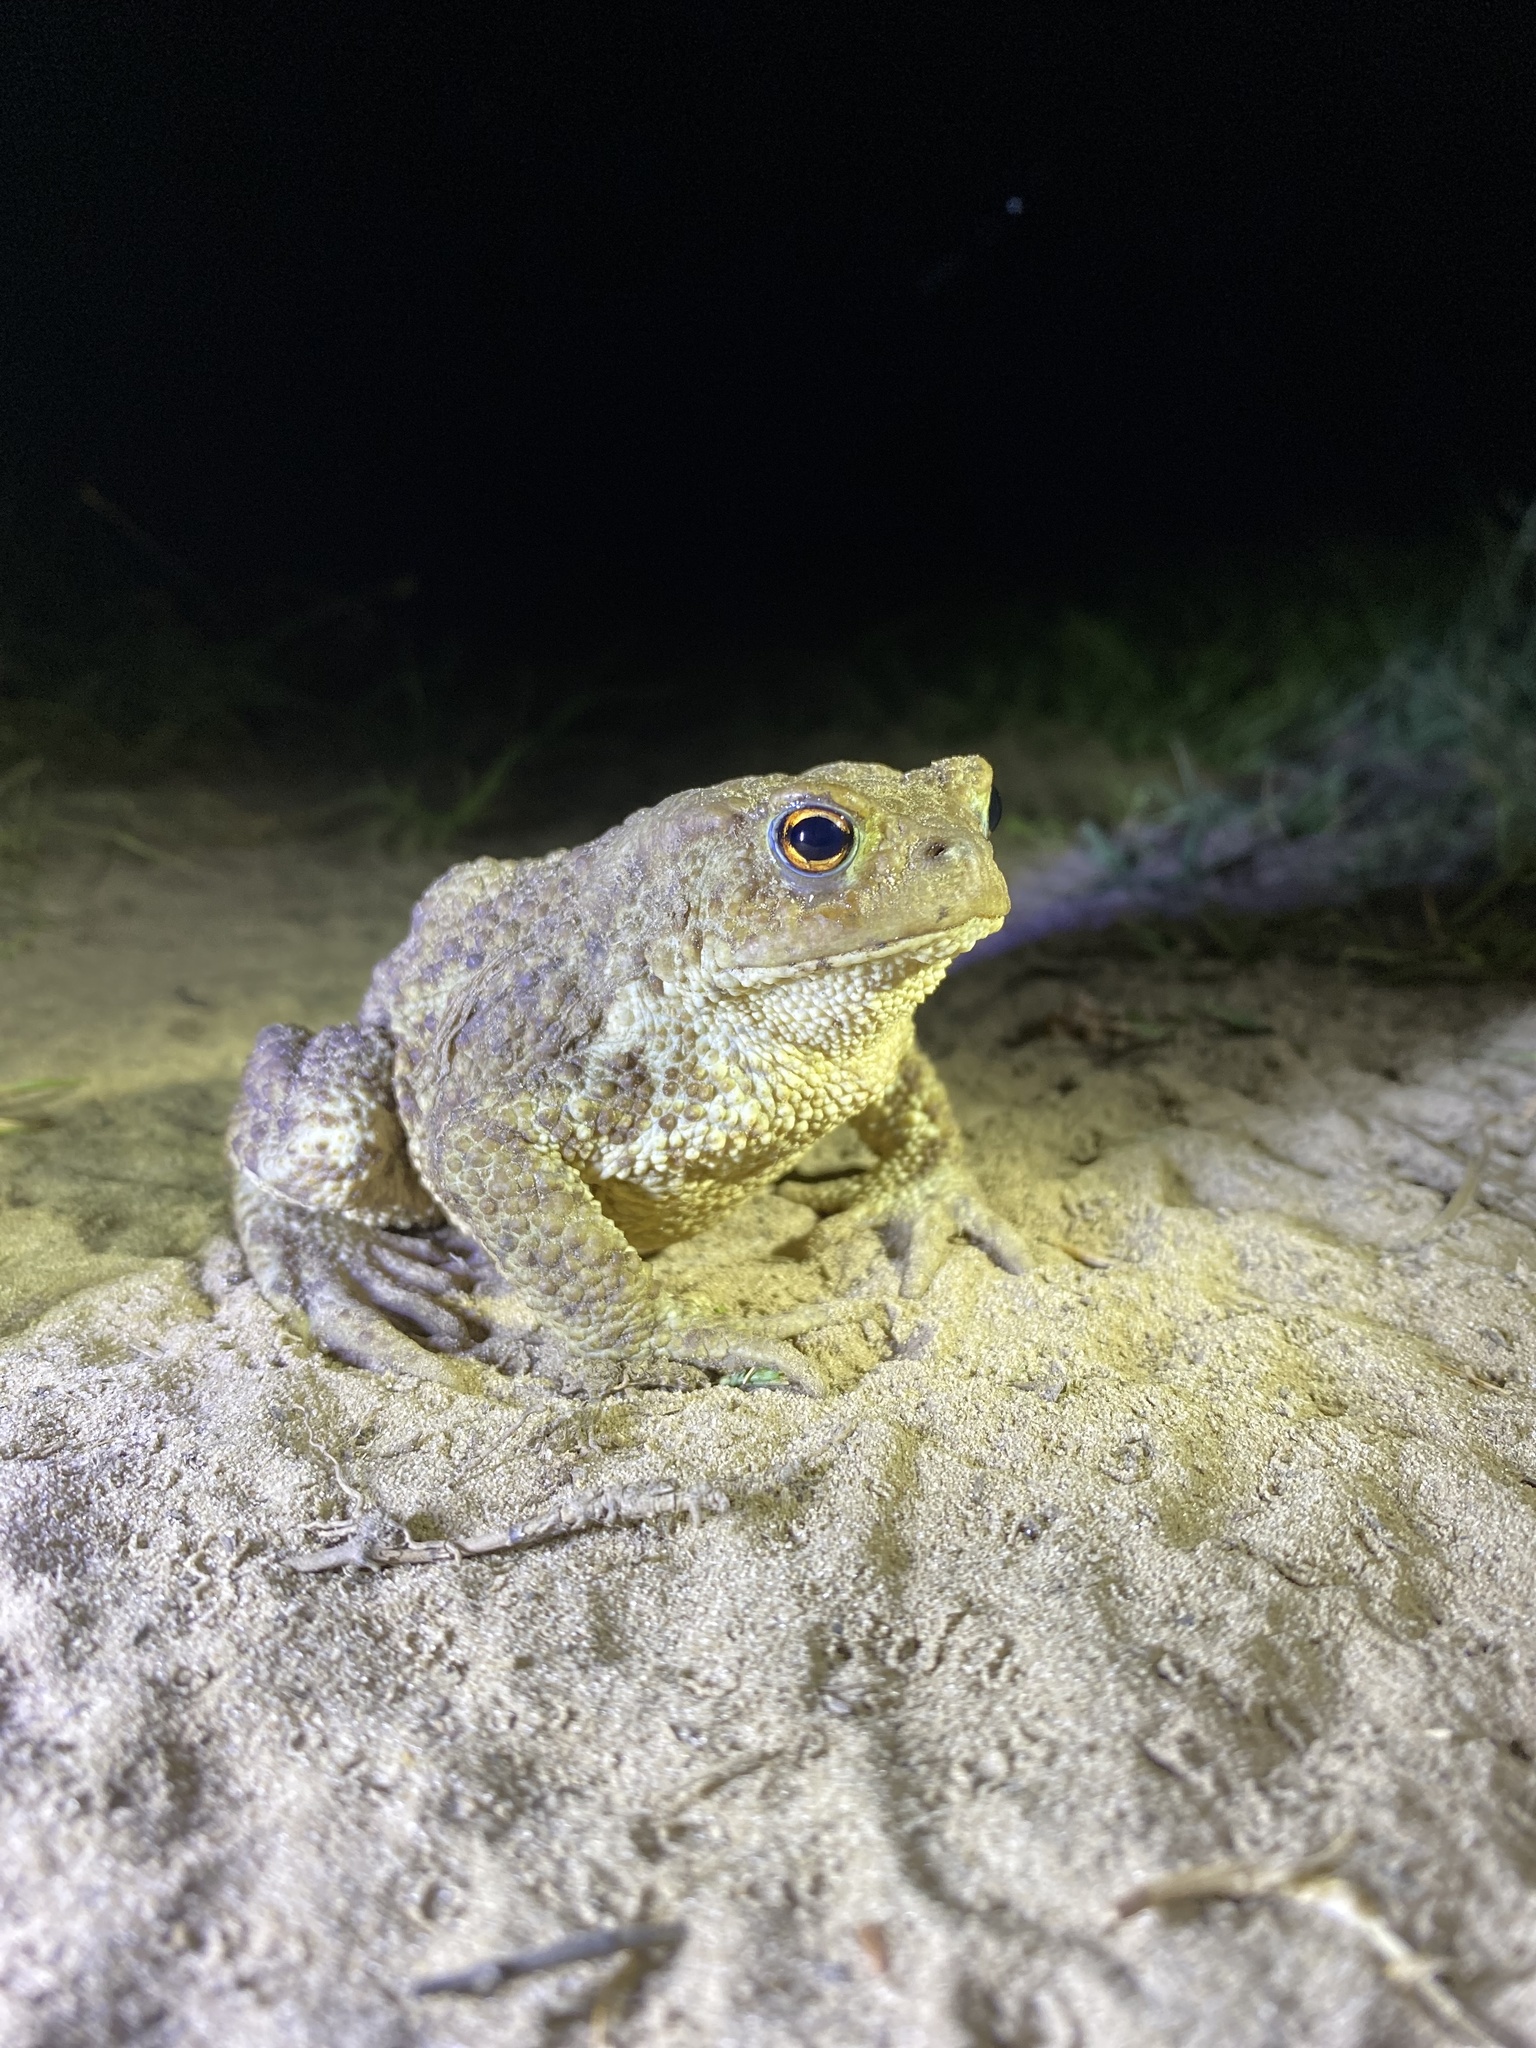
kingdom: Animalia
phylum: Chordata
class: Amphibia
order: Anura
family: Bufonidae
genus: Bufo
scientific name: Bufo bufo
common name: Common toad
